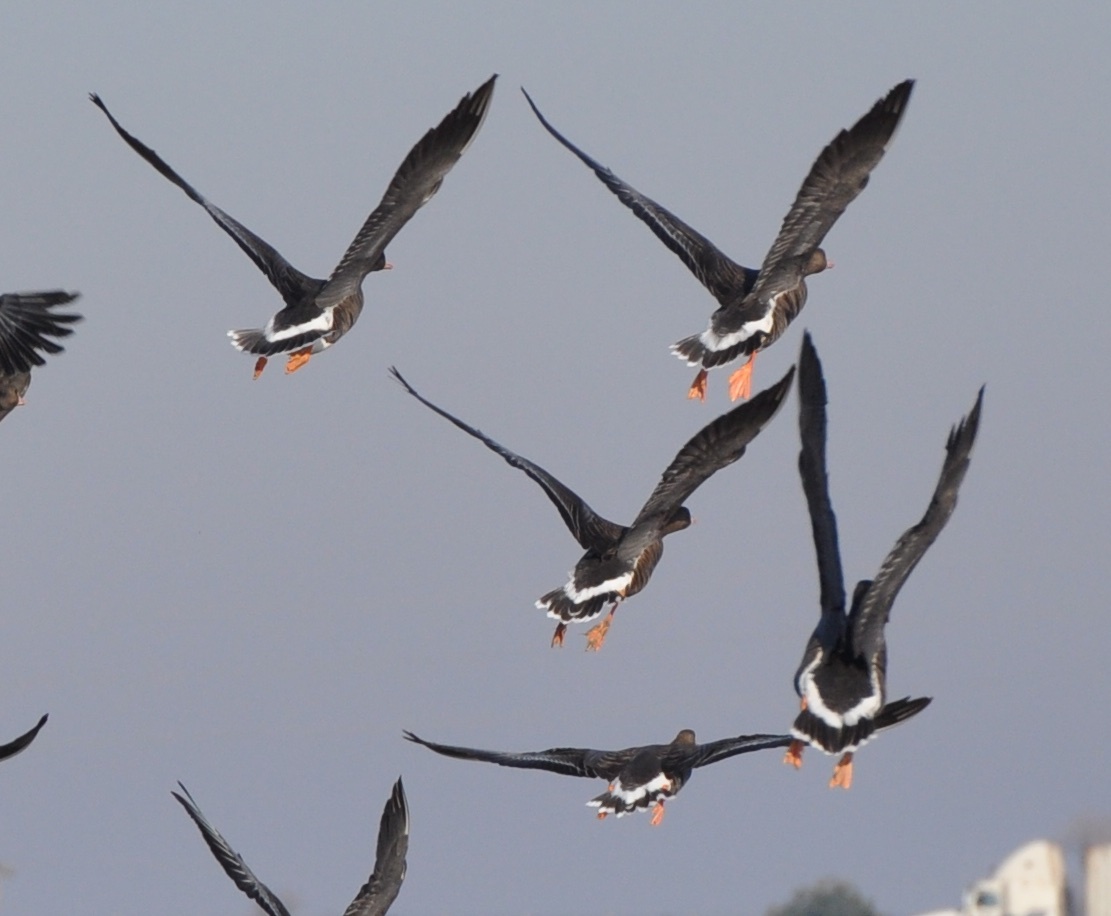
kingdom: Animalia
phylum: Chordata
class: Aves
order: Anseriformes
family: Anatidae
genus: Anser
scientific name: Anser albifrons
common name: Greater white-fronted goose
